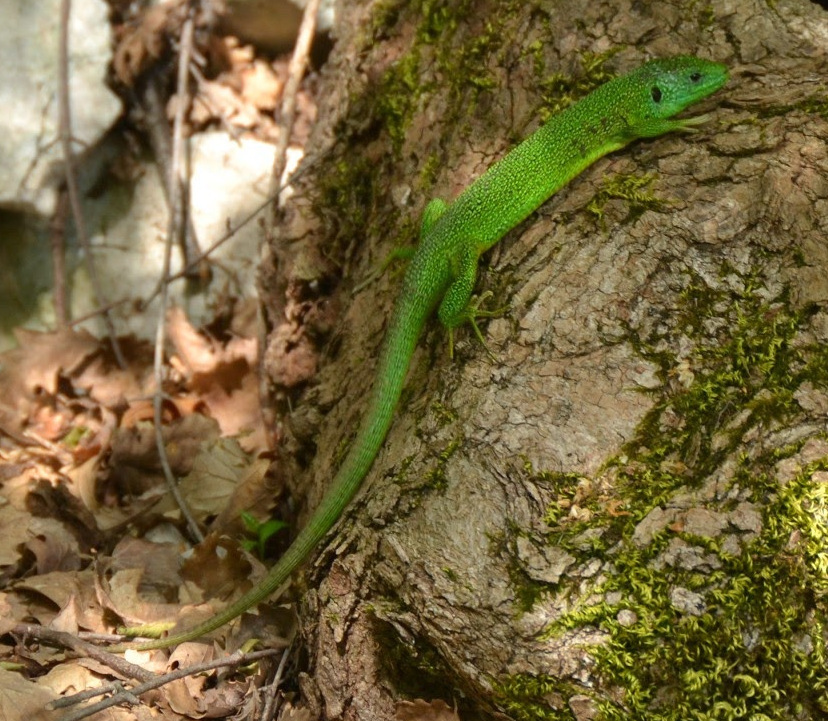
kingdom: Animalia
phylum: Chordata
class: Squamata
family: Lacertidae
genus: Lacerta
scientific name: Lacerta bilineata
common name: Western green lizard
